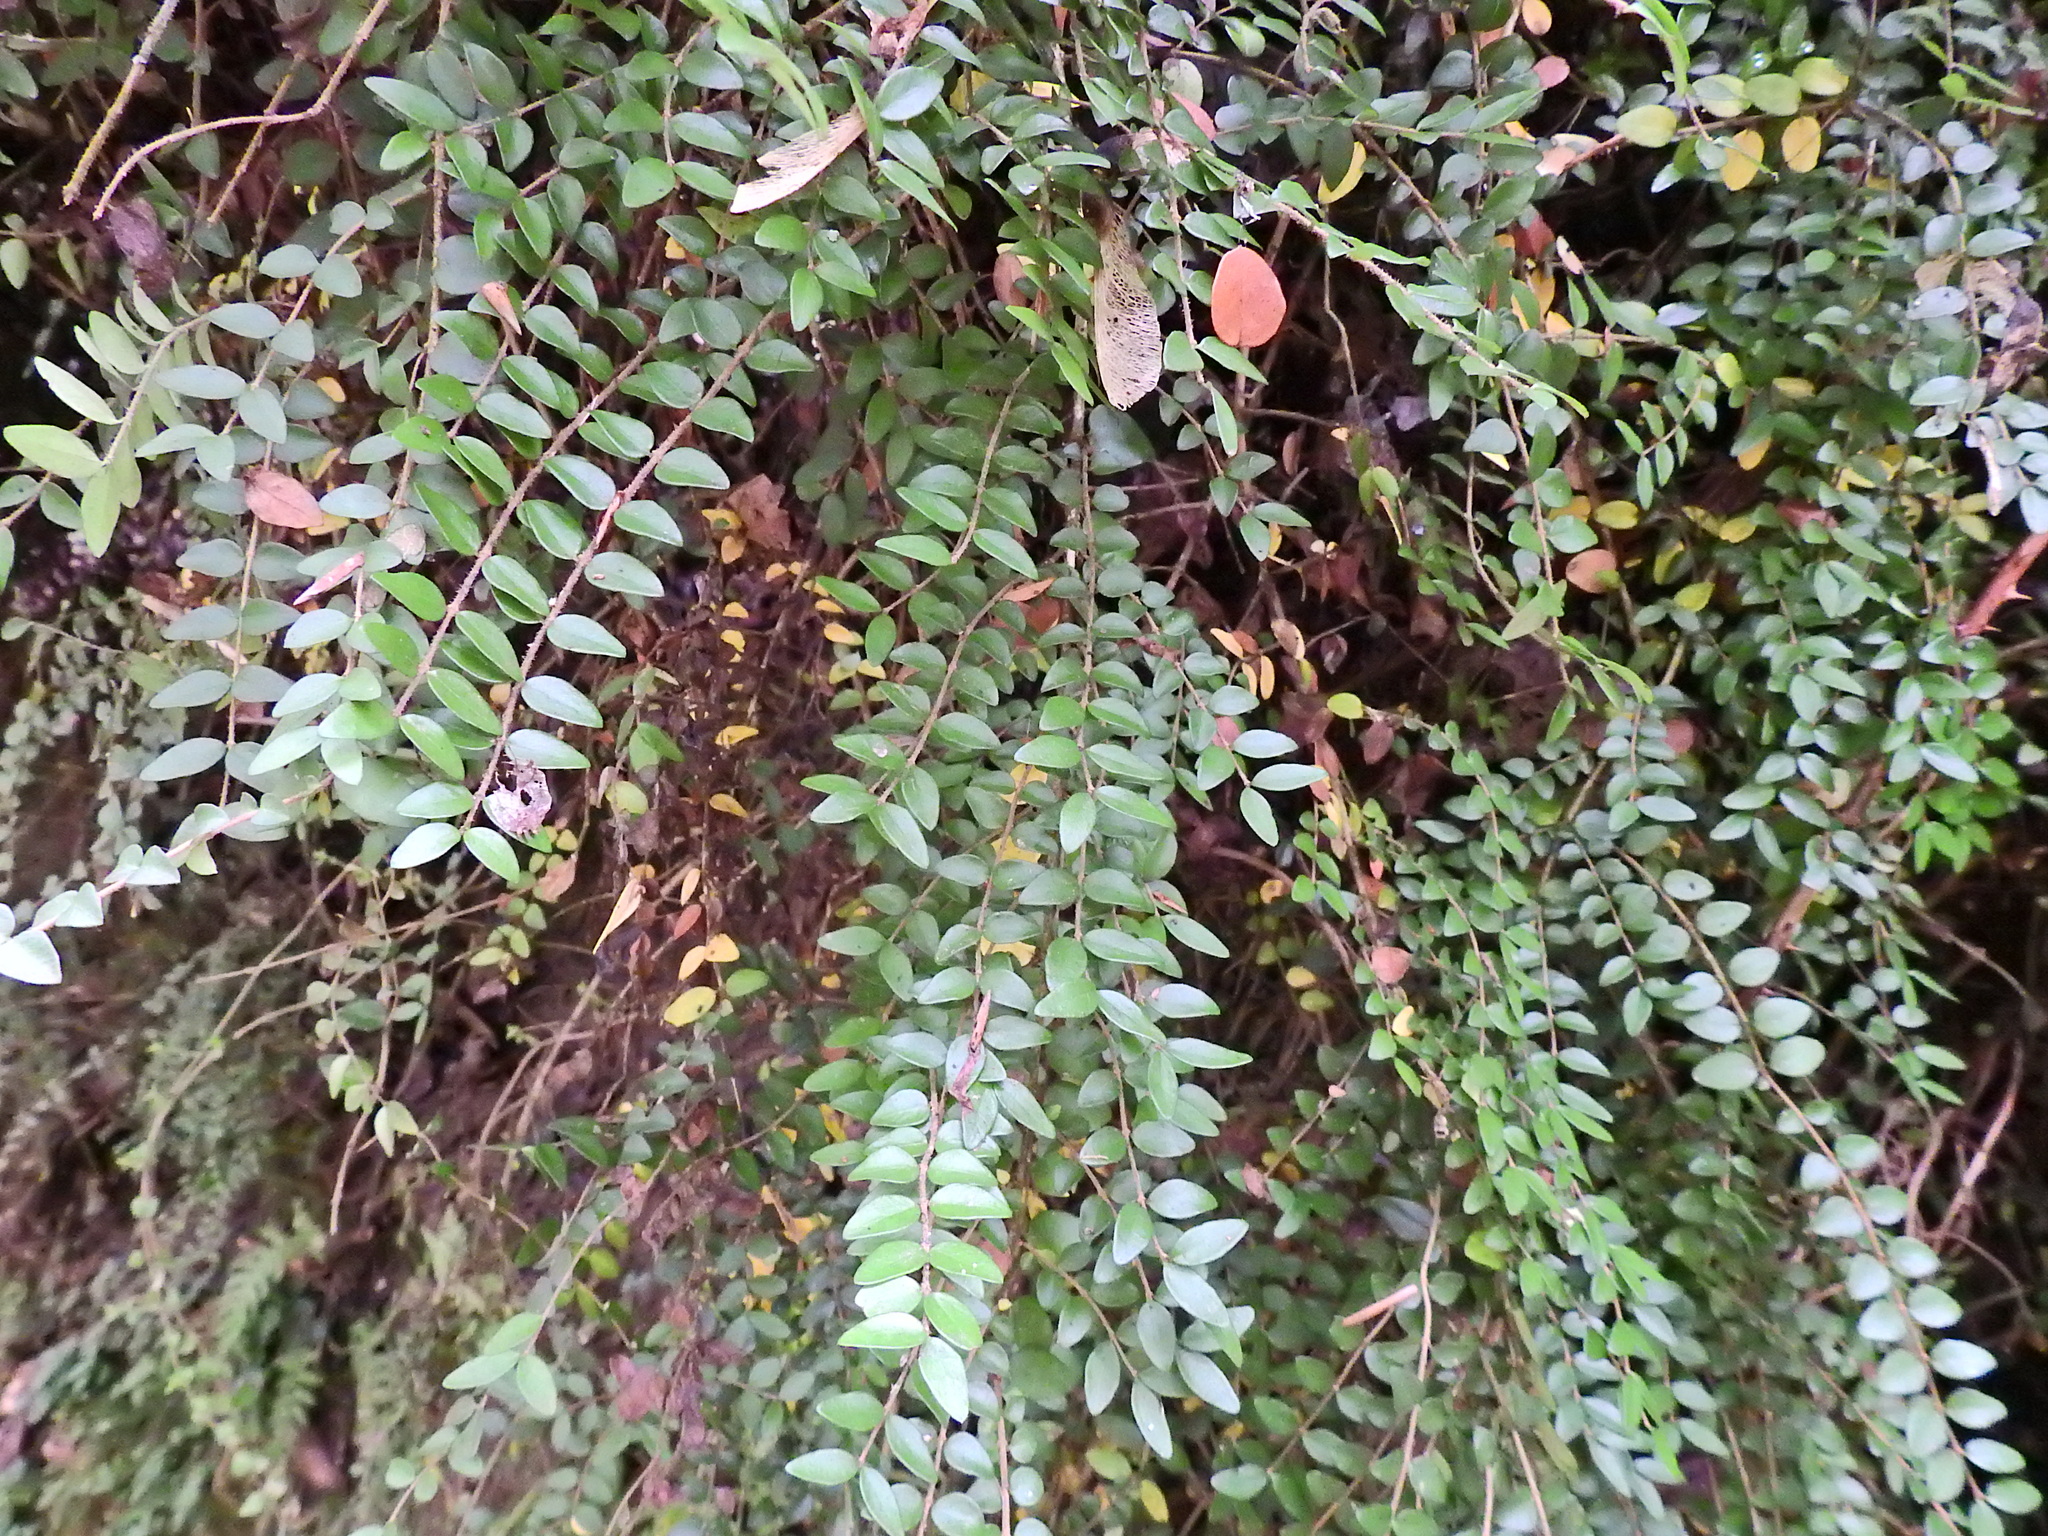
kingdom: Plantae
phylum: Tracheophyta
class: Magnoliopsida
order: Dipsacales
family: Caprifoliaceae
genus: Lonicera
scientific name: Lonicera ligustrina
